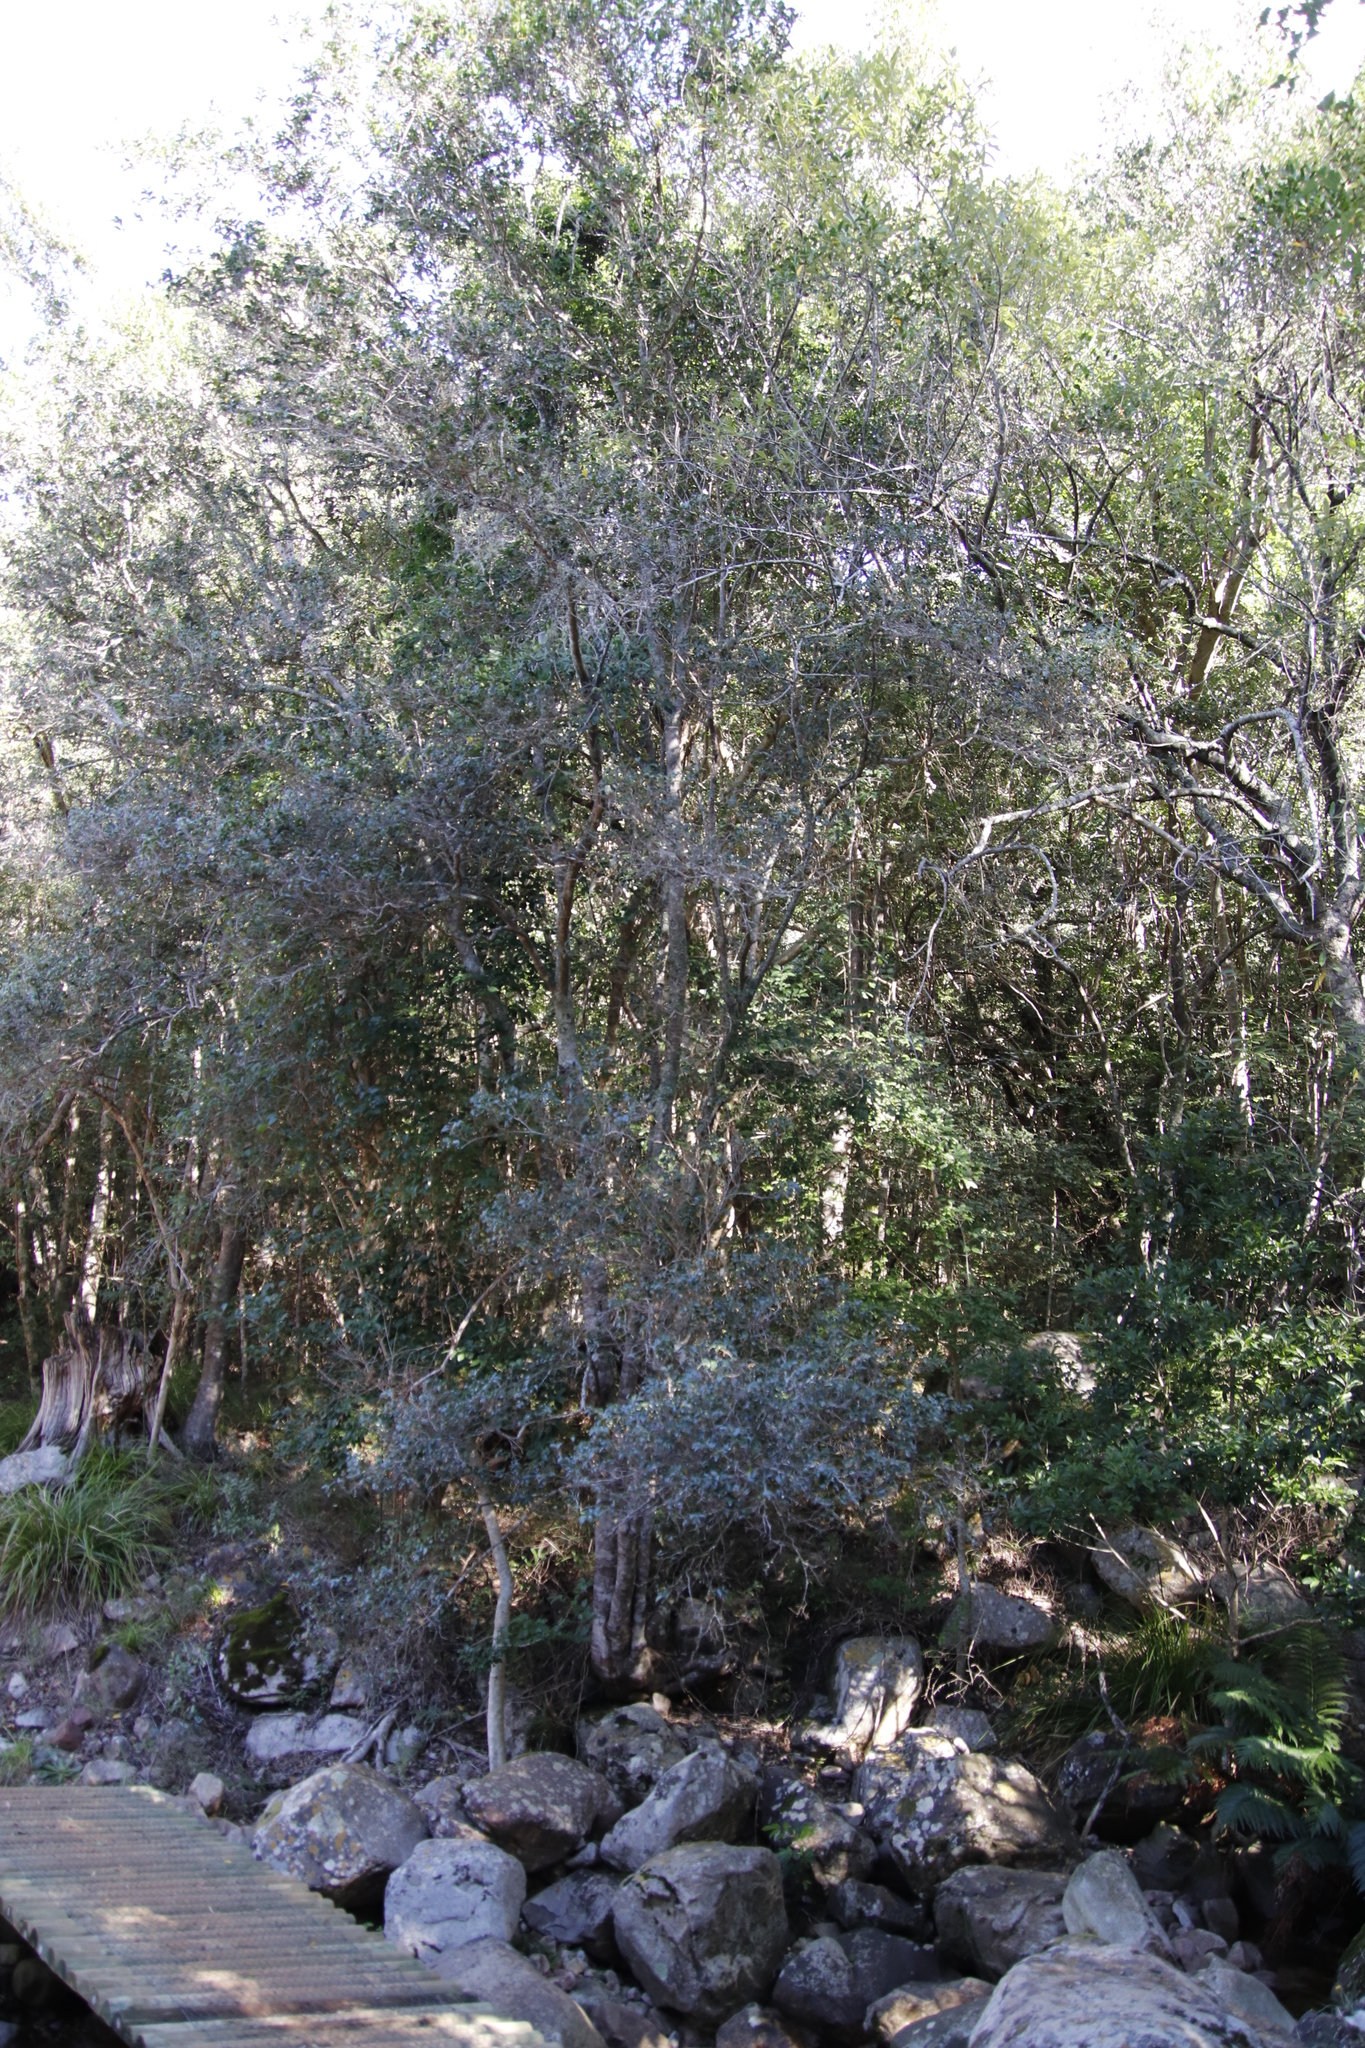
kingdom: Plantae
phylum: Tracheophyta
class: Magnoliopsida
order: Ericales
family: Ebenaceae
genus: Diospyros
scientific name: Diospyros whyteana
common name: Bladder-nut
